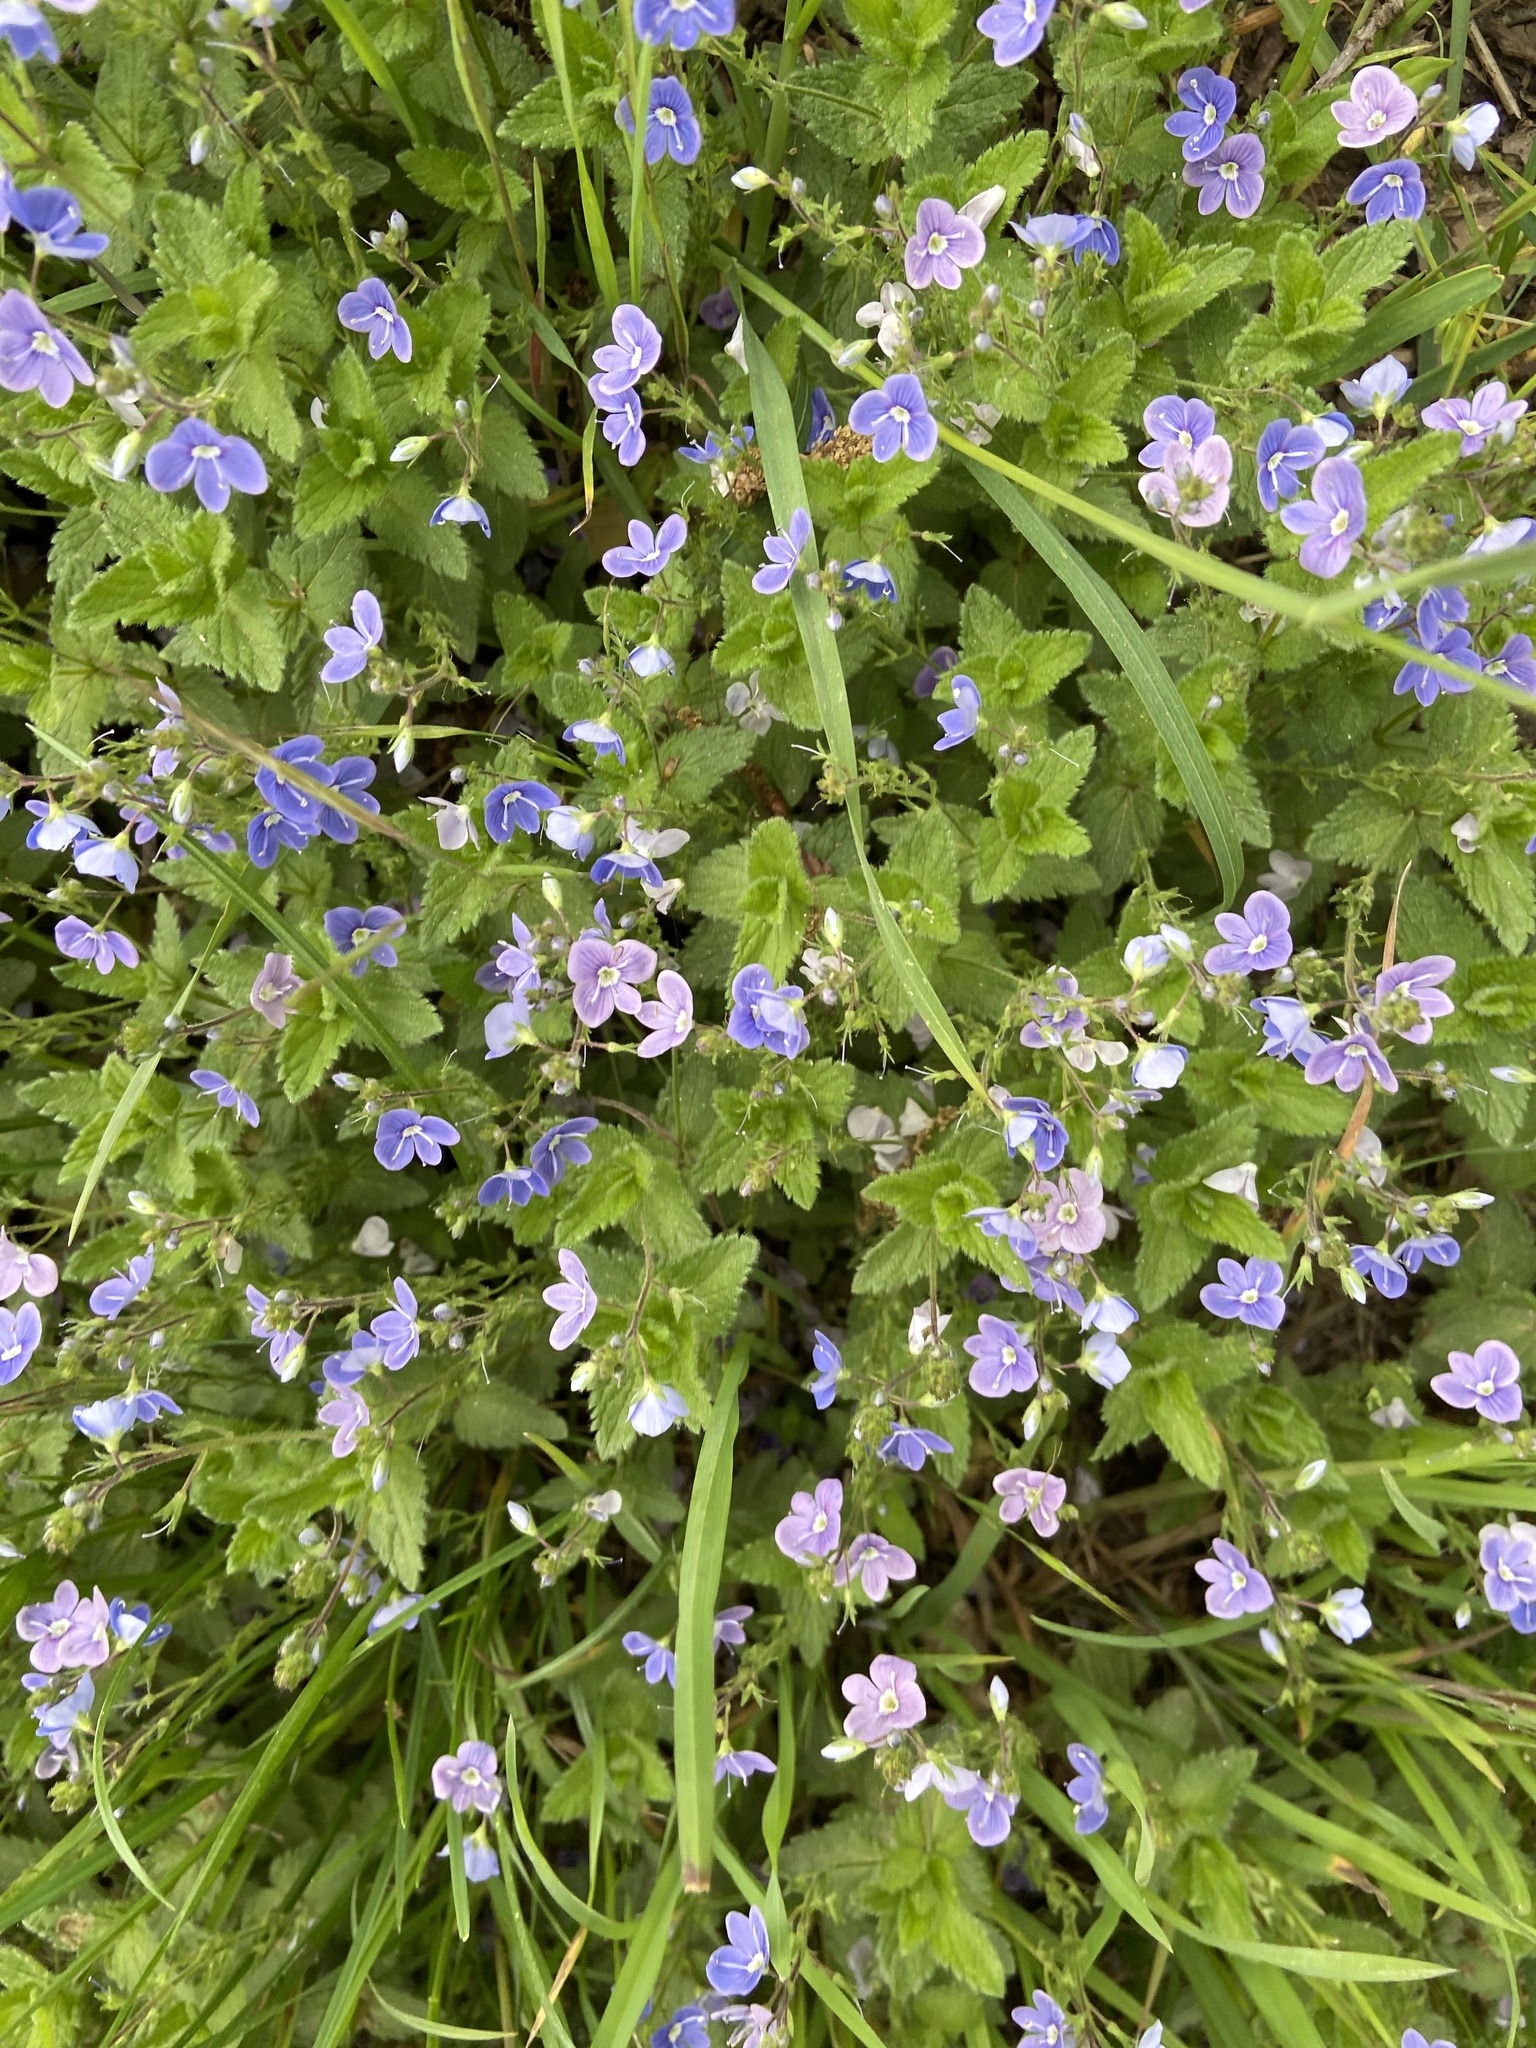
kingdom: Plantae
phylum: Tracheophyta
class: Magnoliopsida
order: Lamiales
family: Plantaginaceae
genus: Veronica
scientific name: Veronica chamaedrys
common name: Germander speedwell
